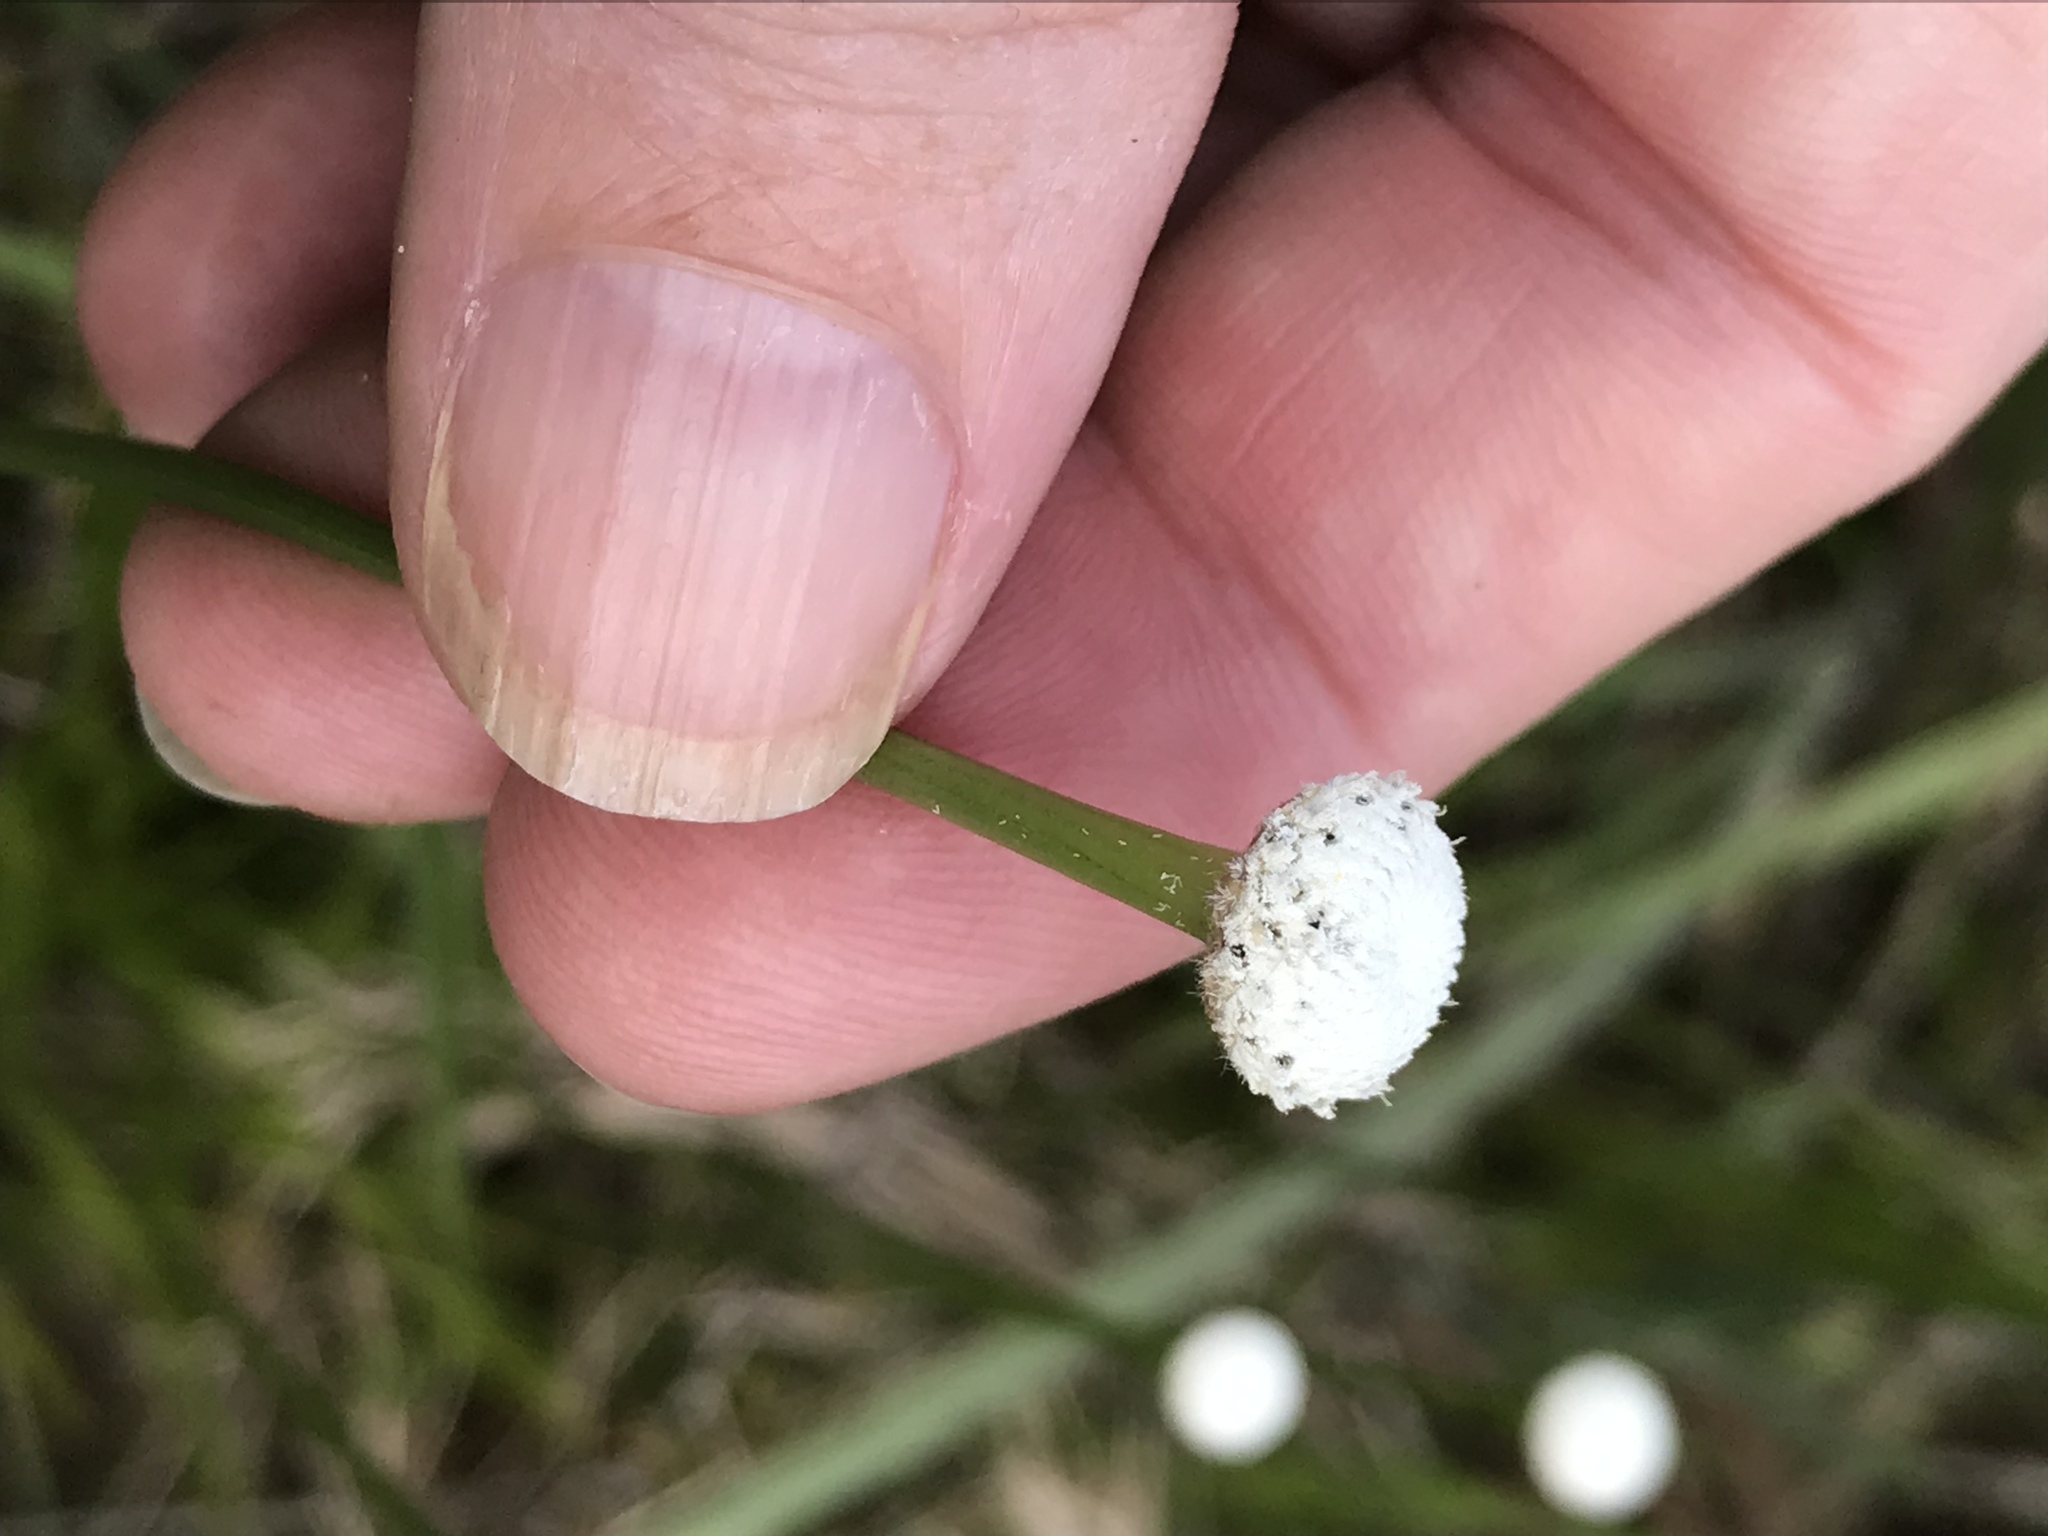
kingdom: Plantae
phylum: Tracheophyta
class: Liliopsida
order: Poales
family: Eriocaulaceae
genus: Eriocaulon
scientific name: Eriocaulon decangulare
